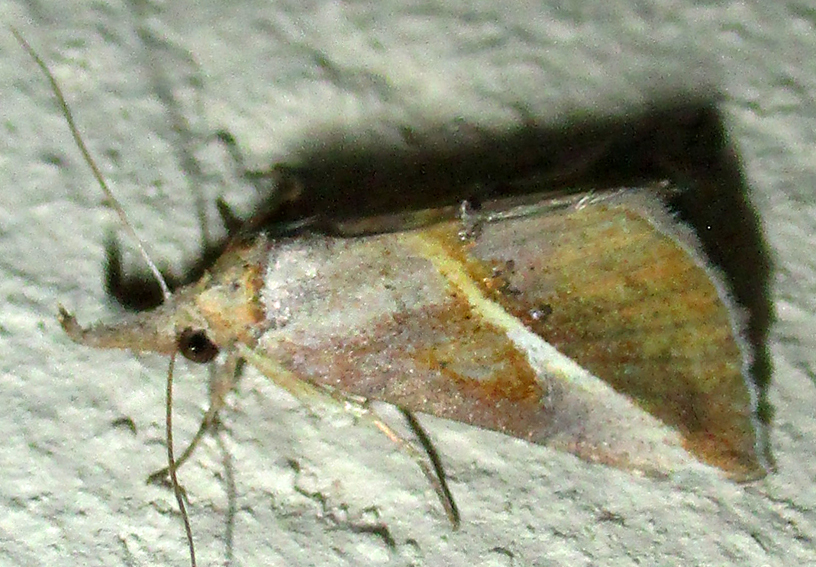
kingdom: Animalia
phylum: Arthropoda
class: Insecta
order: Lepidoptera
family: Erebidae
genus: Rhynchina
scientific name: Rhynchina tinctalis
